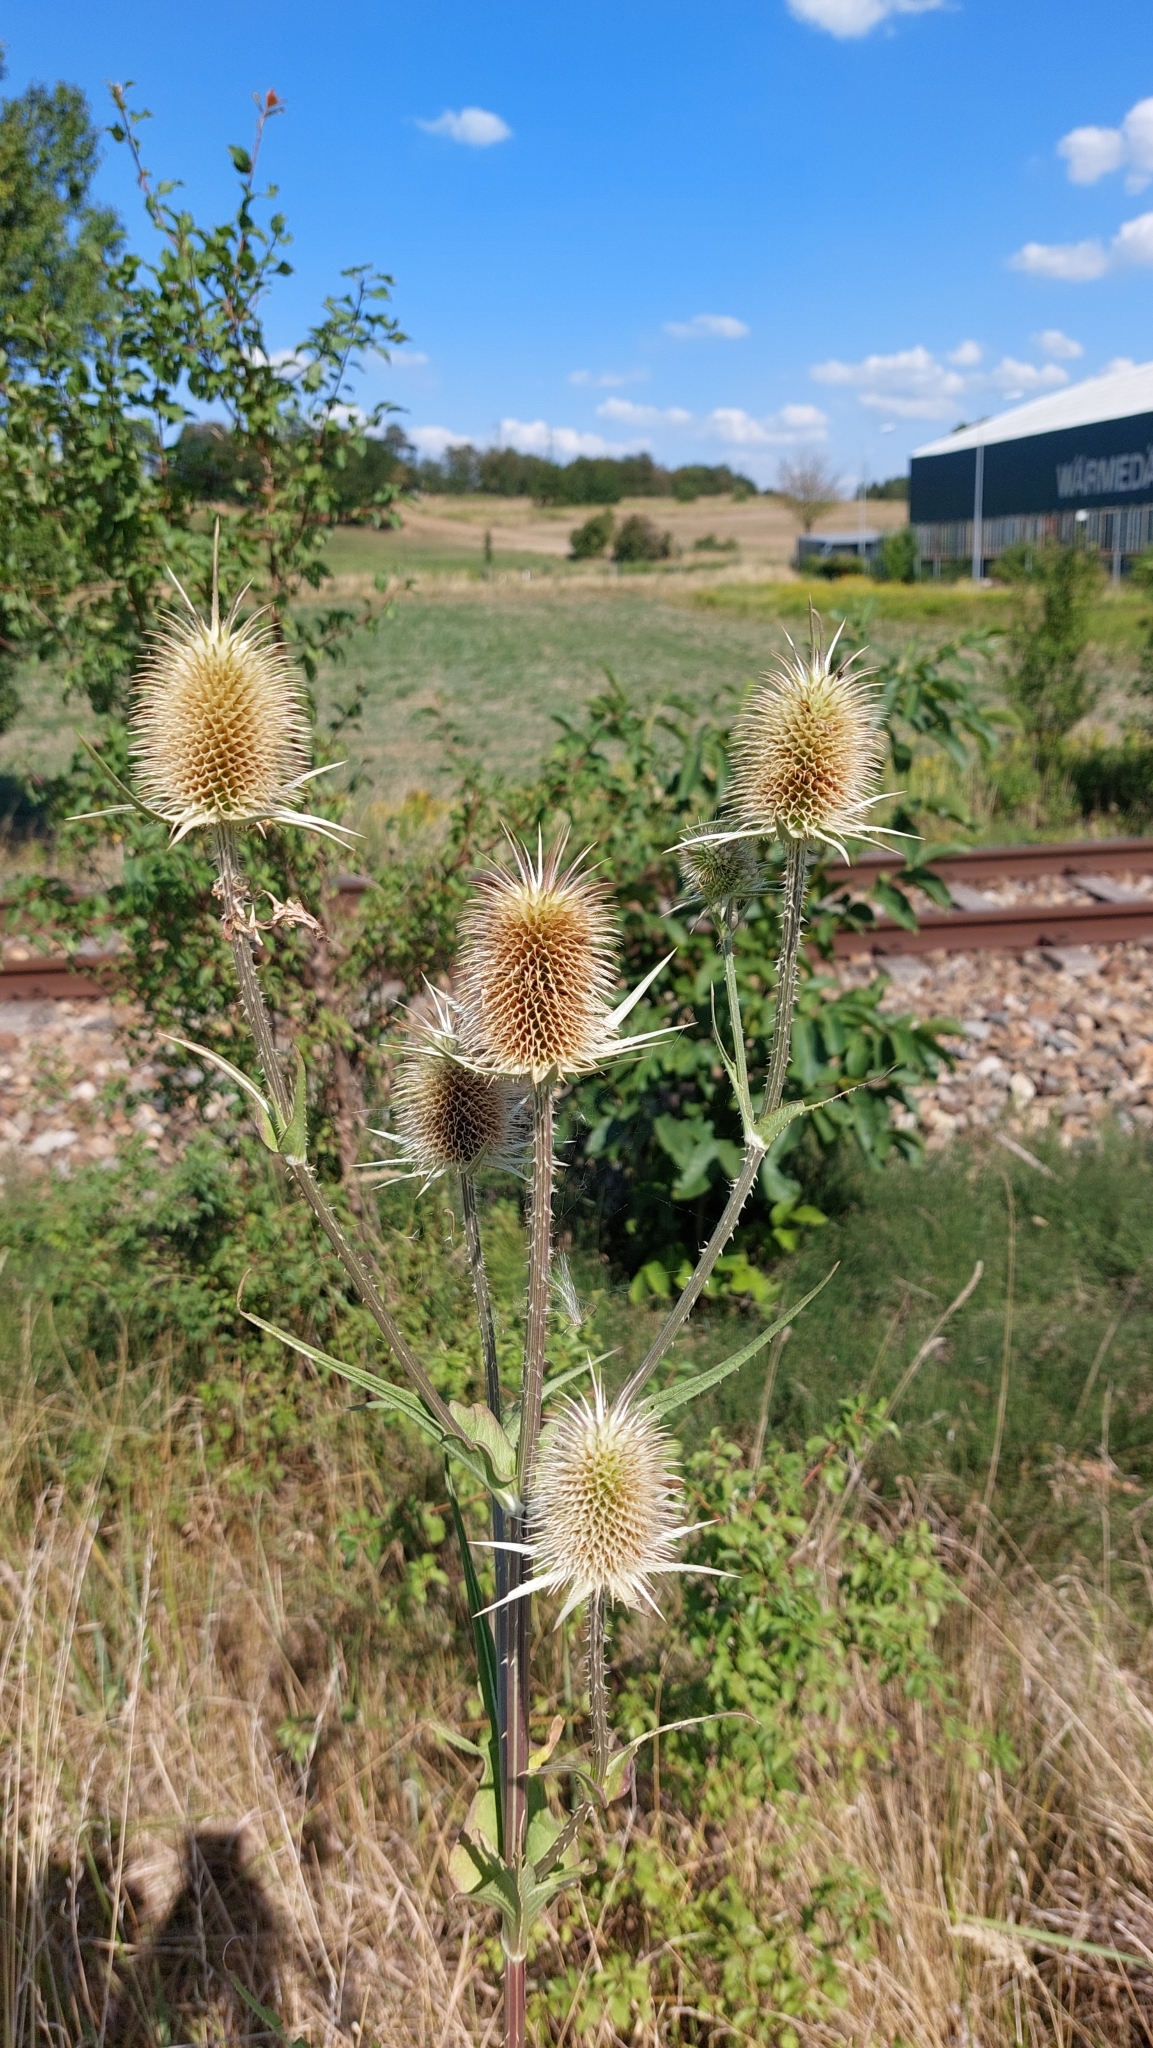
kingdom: Plantae
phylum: Tracheophyta
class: Magnoliopsida
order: Dipsacales
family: Caprifoliaceae
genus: Dipsacus
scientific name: Dipsacus laciniatus
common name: Cut-leaved teasel
